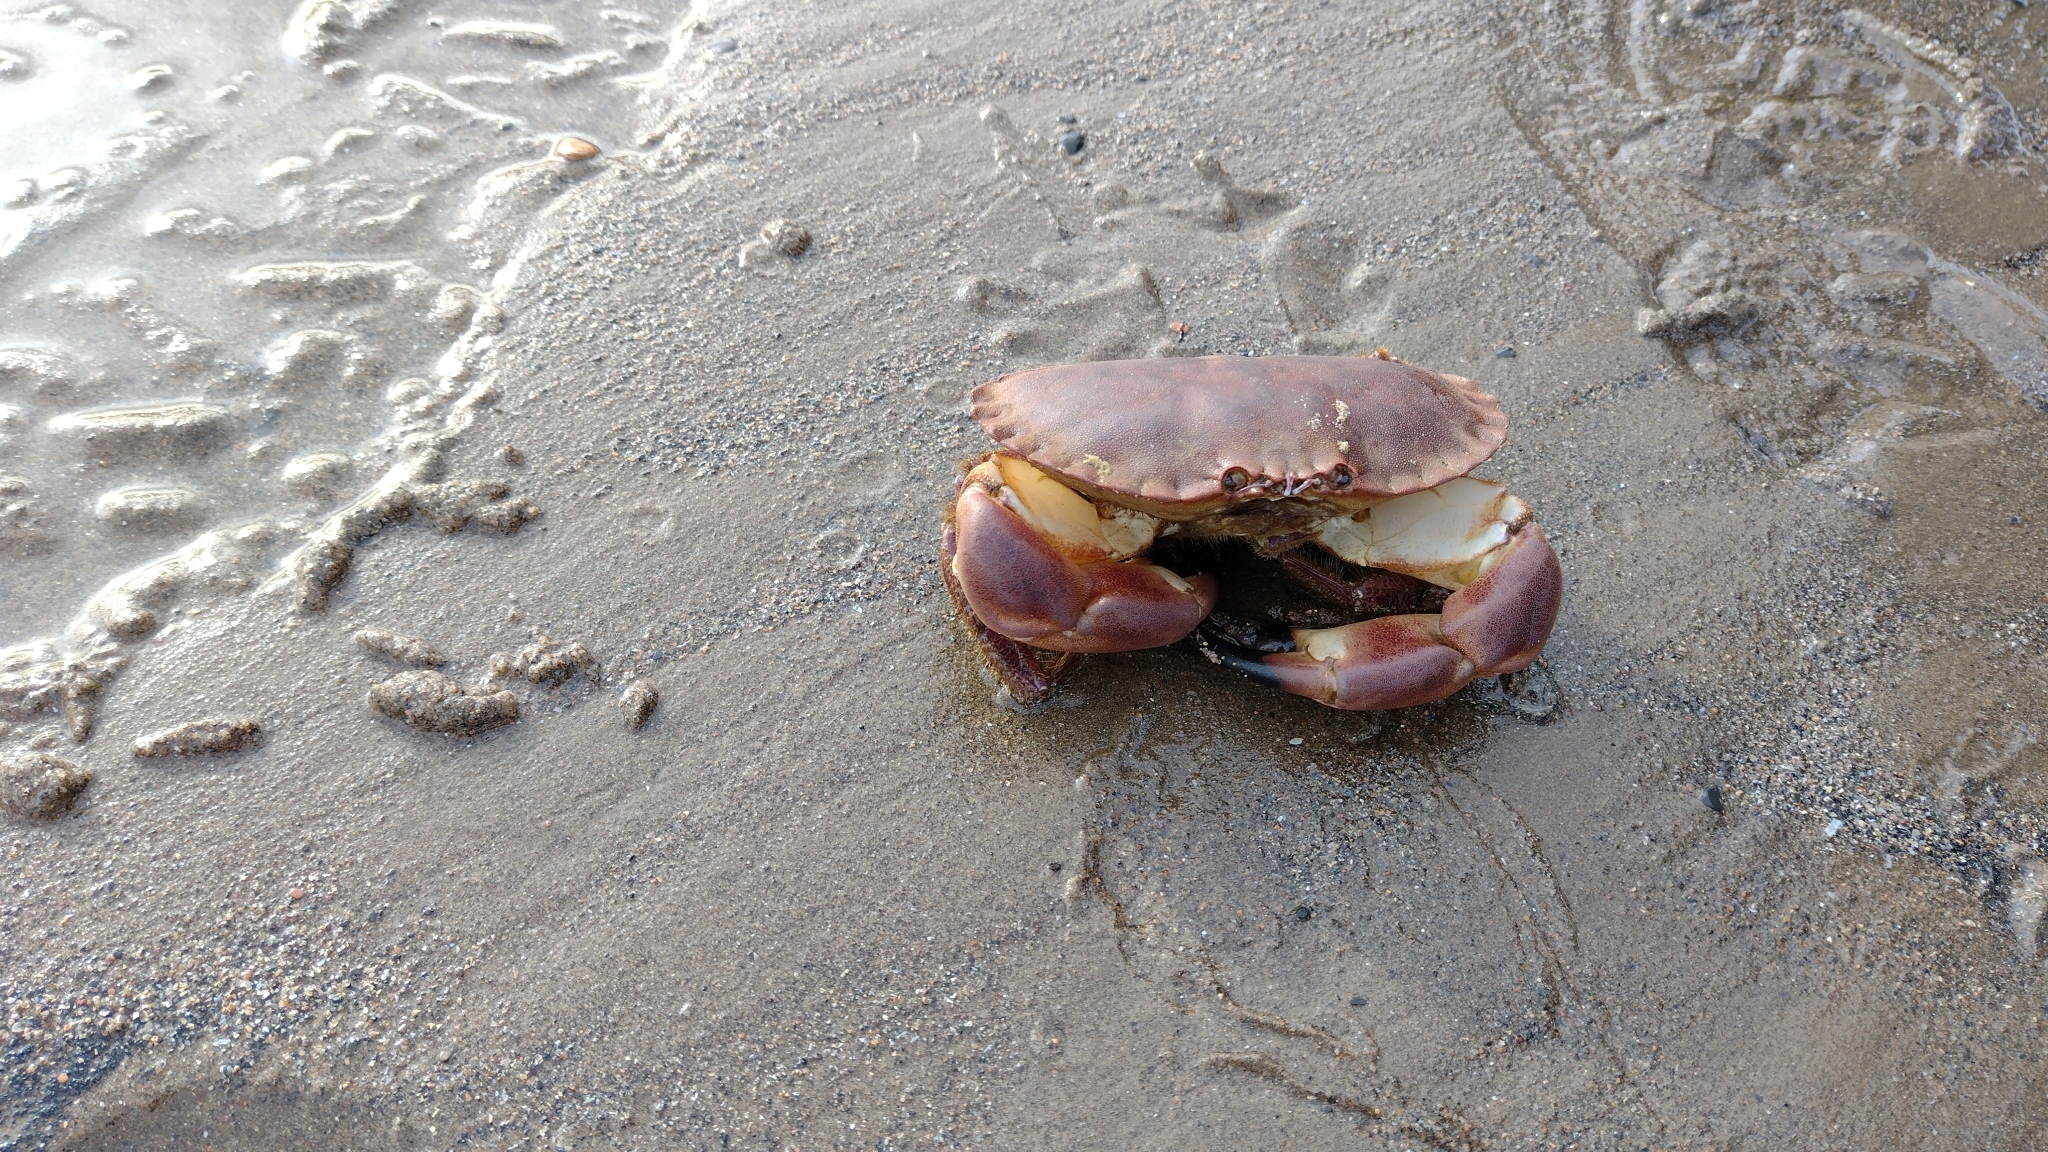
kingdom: Animalia
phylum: Arthropoda
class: Malacostraca
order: Decapoda
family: Cancridae
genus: Cancer
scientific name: Cancer pagurus
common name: Edible crab
